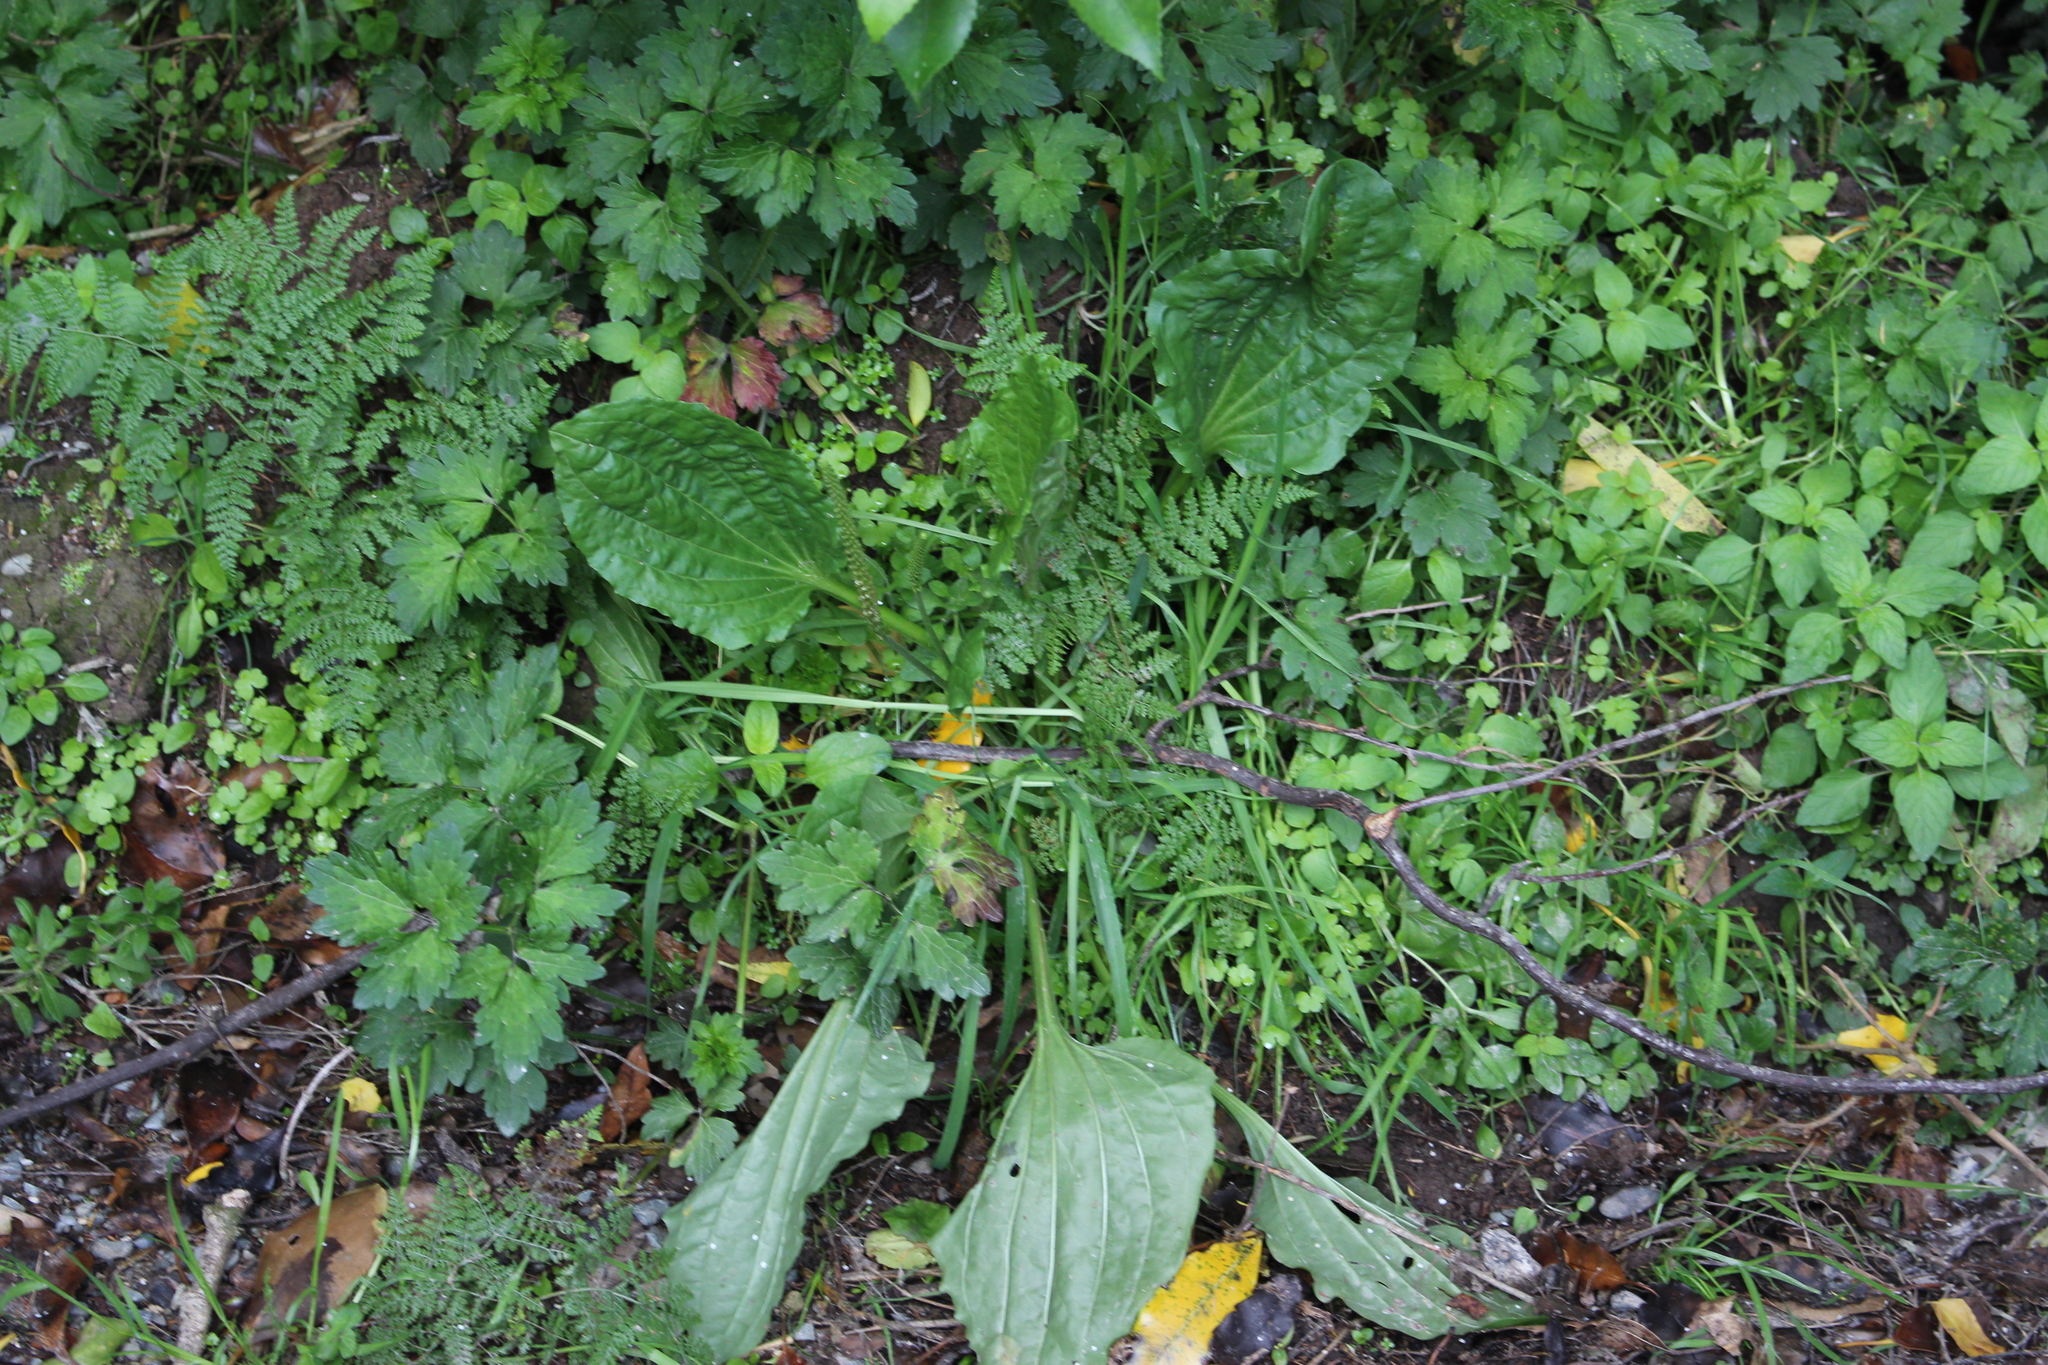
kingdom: Plantae
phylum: Tracheophyta
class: Magnoliopsida
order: Lamiales
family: Plantaginaceae
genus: Plantago
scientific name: Plantago major
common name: Common plantain
